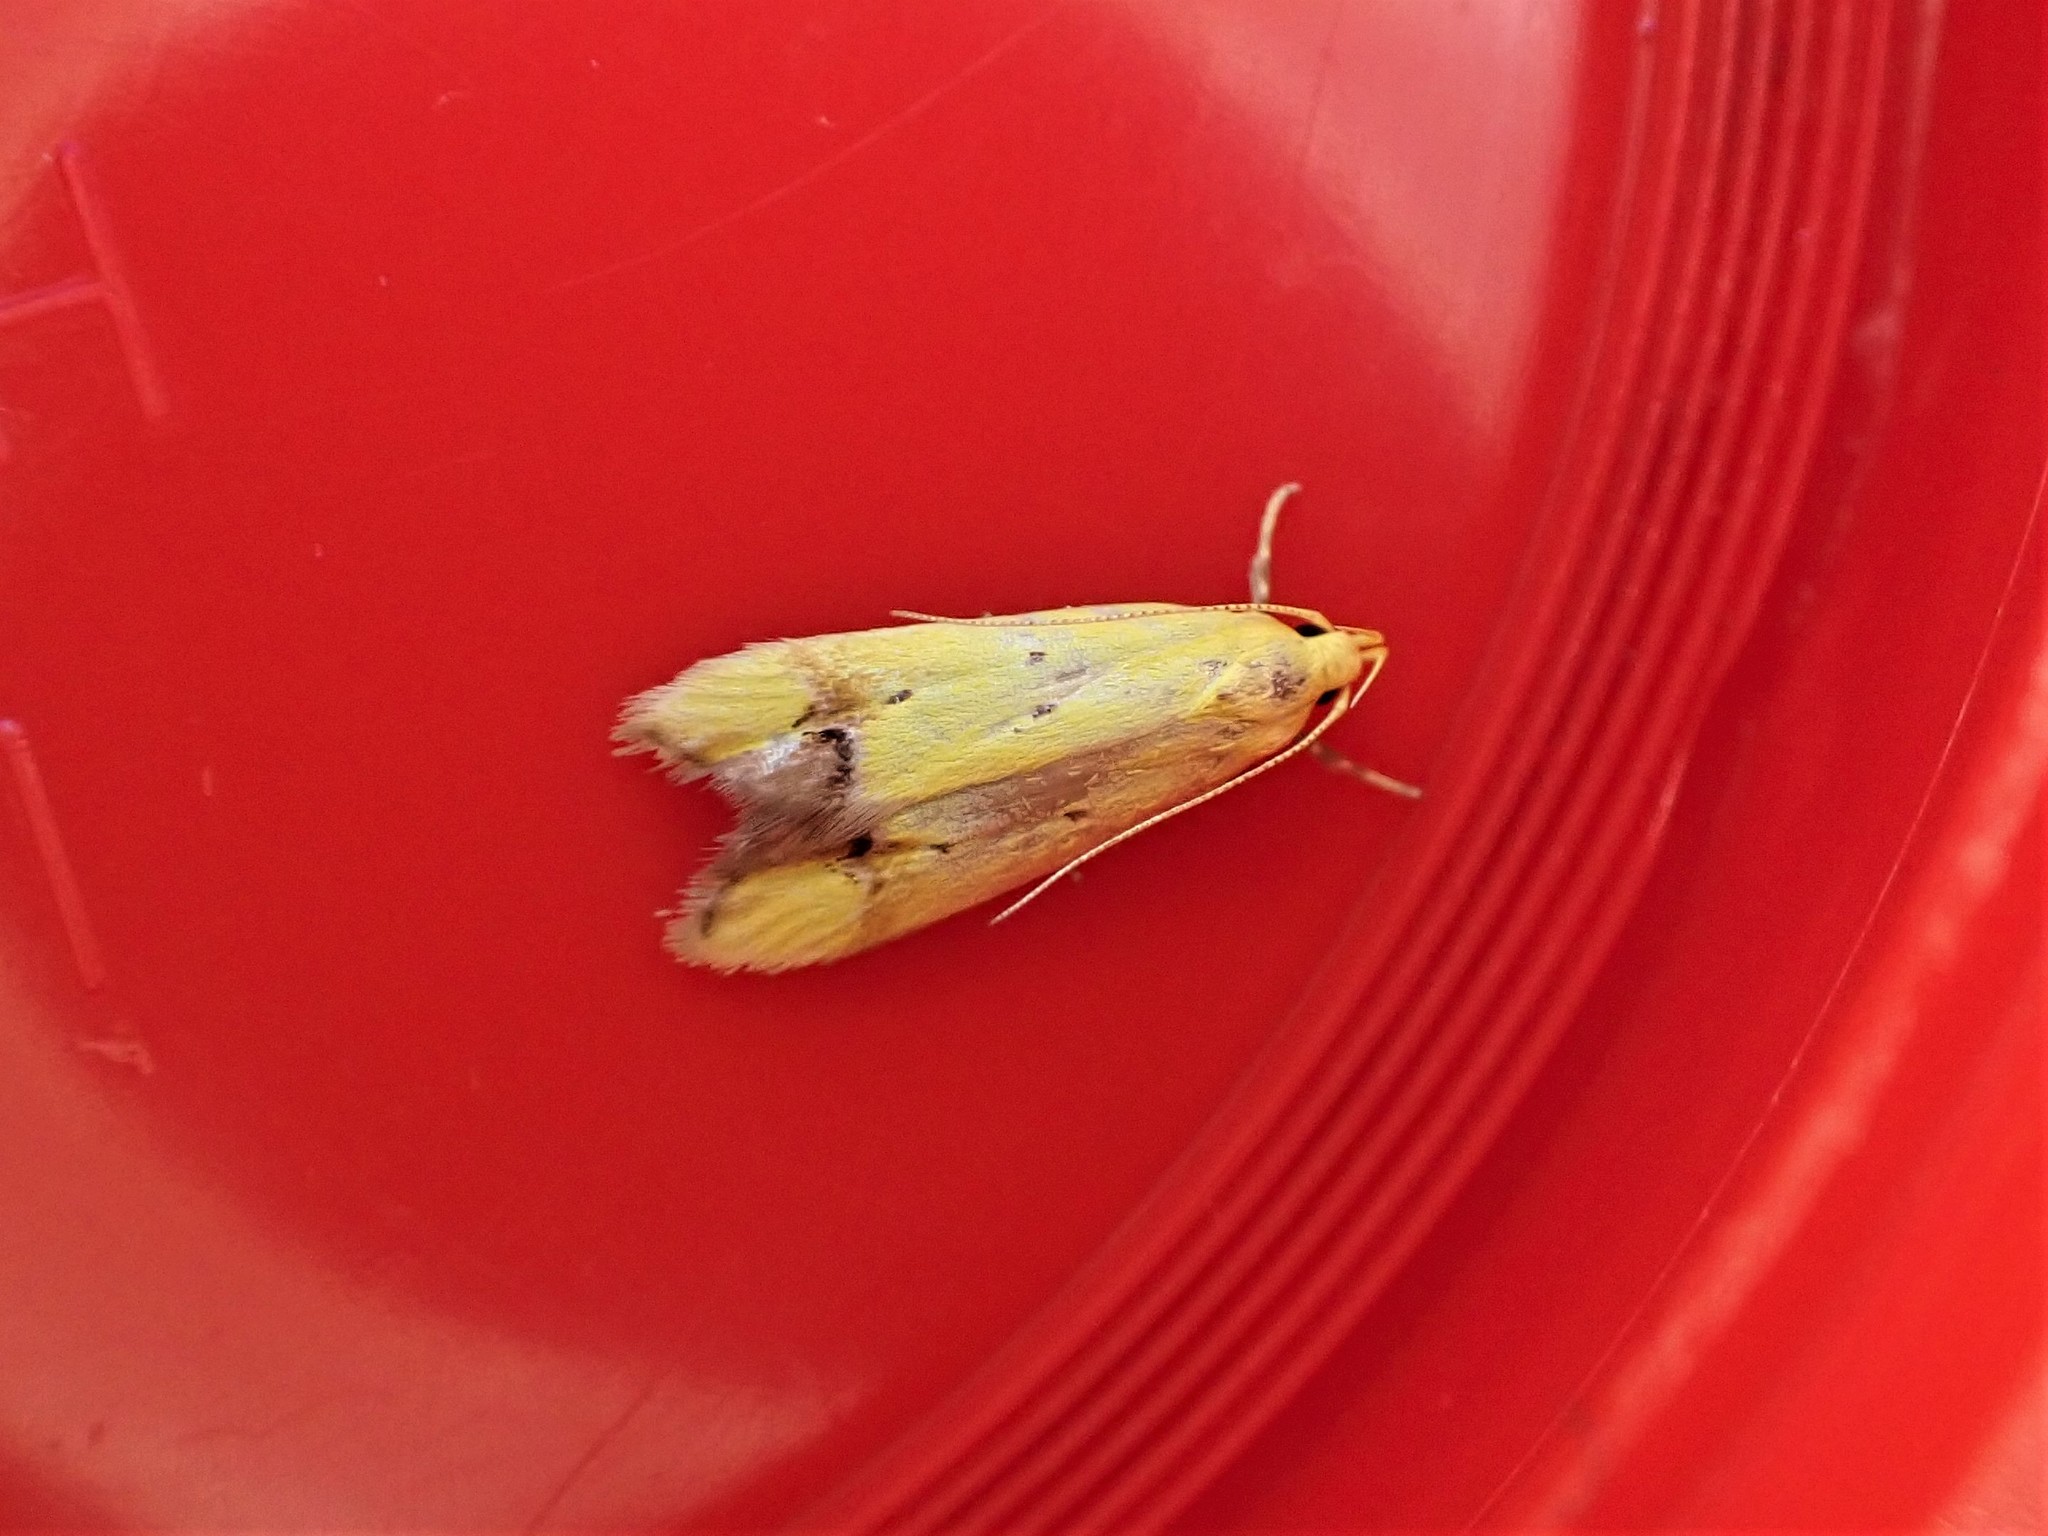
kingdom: Animalia
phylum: Arthropoda
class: Insecta
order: Lepidoptera
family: Oecophoridae
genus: Gymnobathra
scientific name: Gymnobathra flavidella
